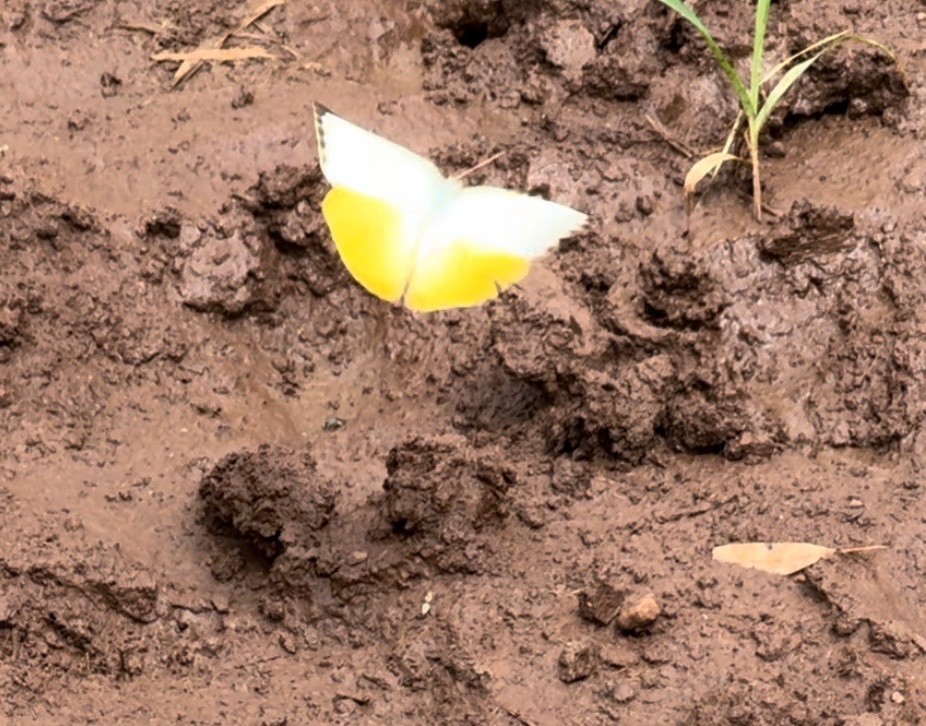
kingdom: Animalia
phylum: Arthropoda
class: Insecta
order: Lepidoptera
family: Pieridae
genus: Catopsilia
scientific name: Catopsilia scylla
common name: Orange emigrant
